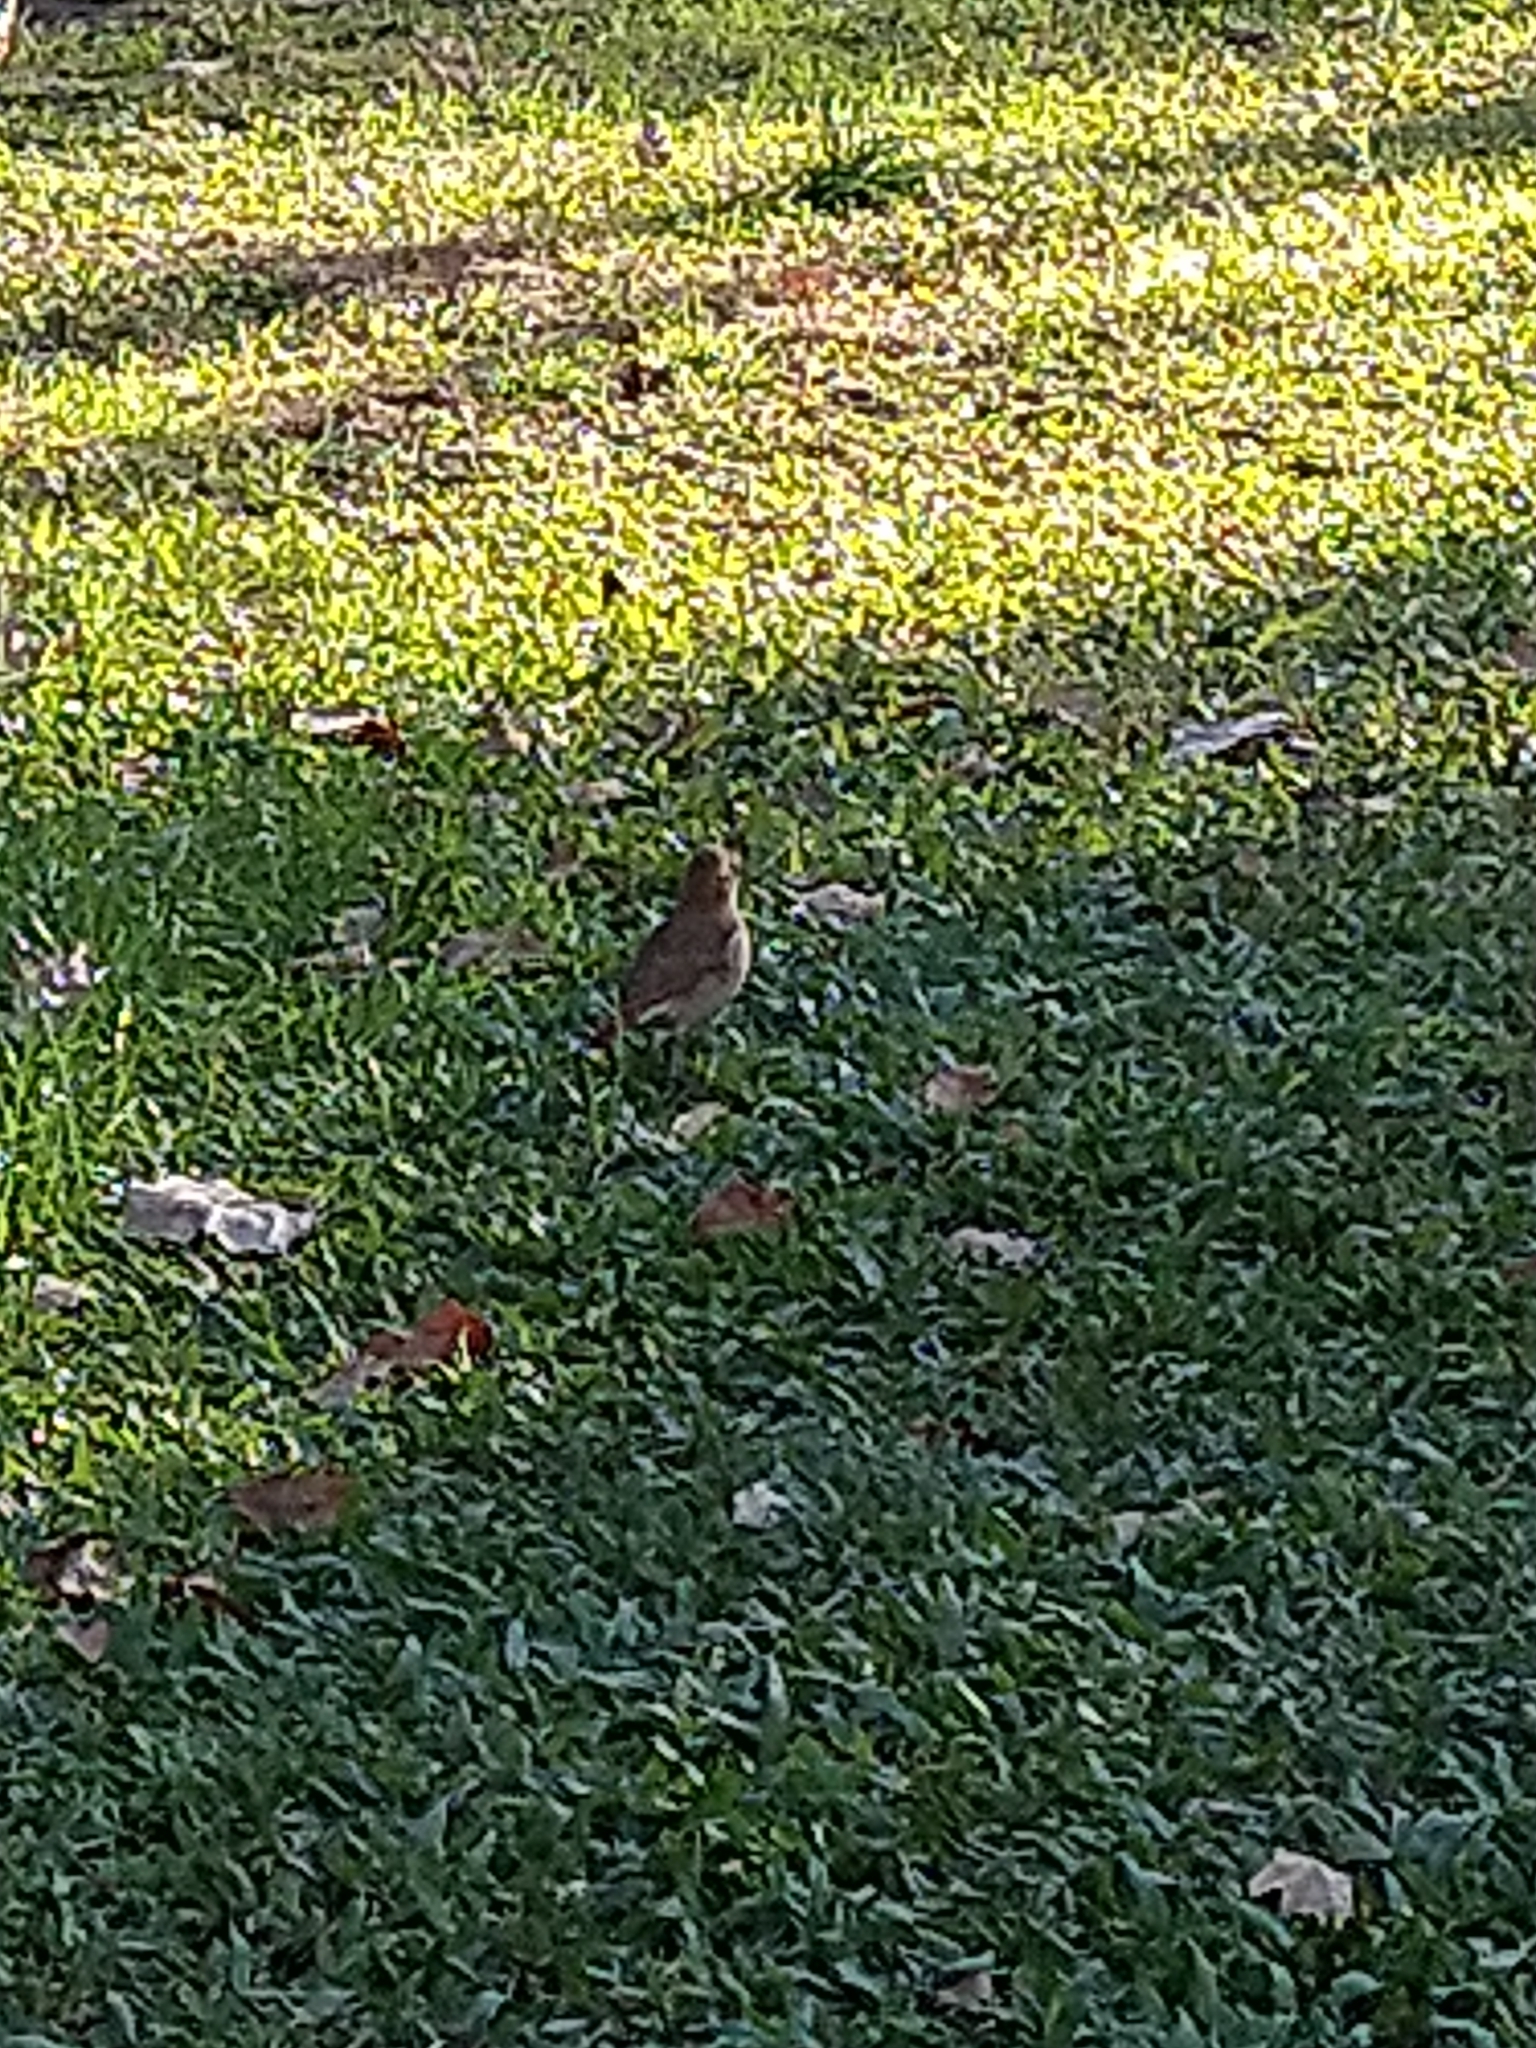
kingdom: Animalia
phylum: Chordata
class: Aves
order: Passeriformes
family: Furnariidae
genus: Furnarius
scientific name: Furnarius rufus
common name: Rufous hornero
